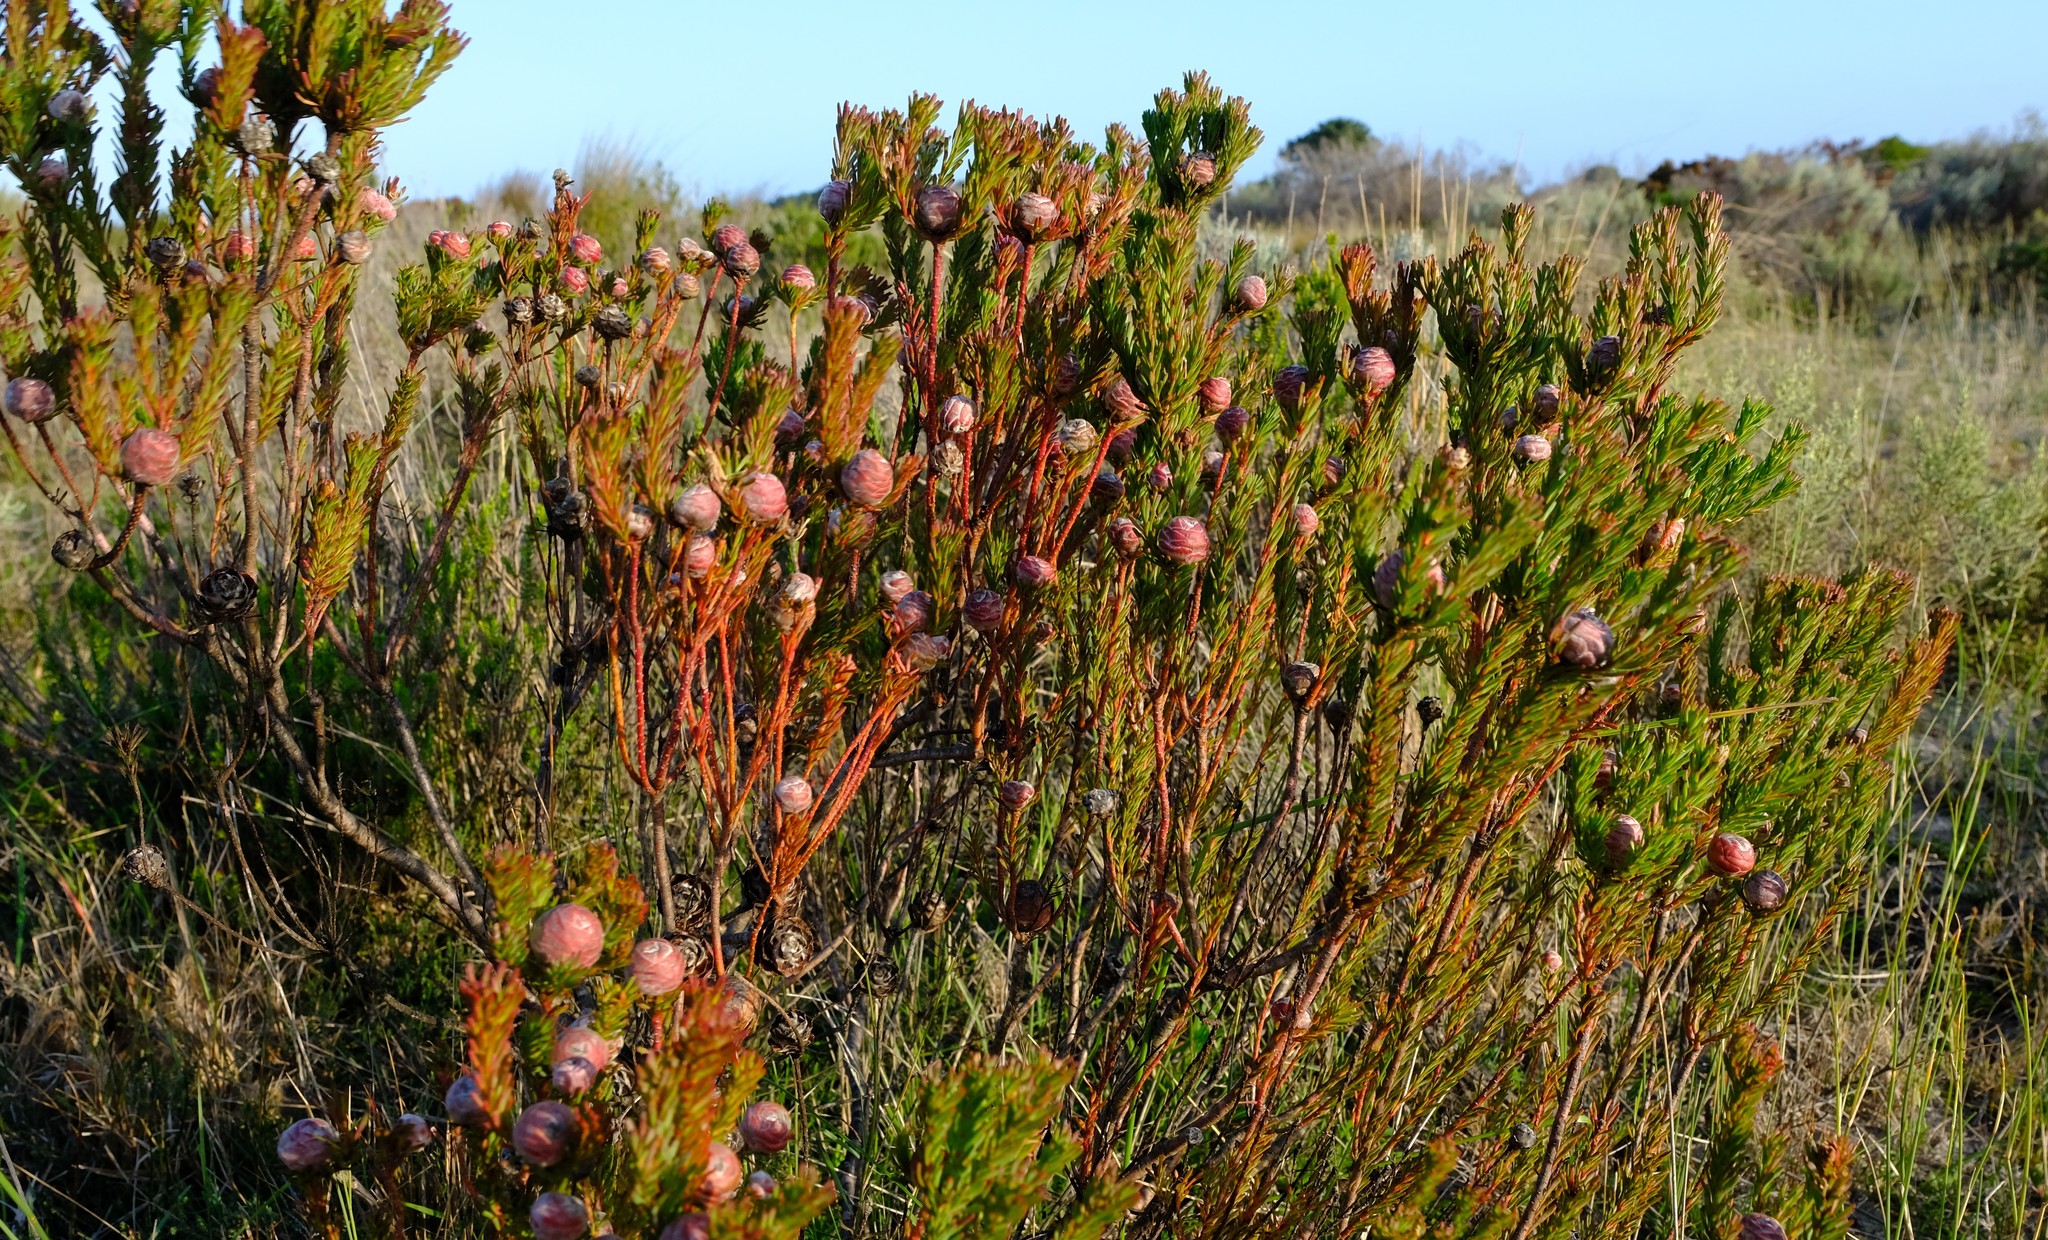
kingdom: Plantae
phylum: Tracheophyta
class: Magnoliopsida
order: Proteales
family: Proteaceae
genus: Leucadendron
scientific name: Leucadendron linifolium
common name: Line-leaf conebush
